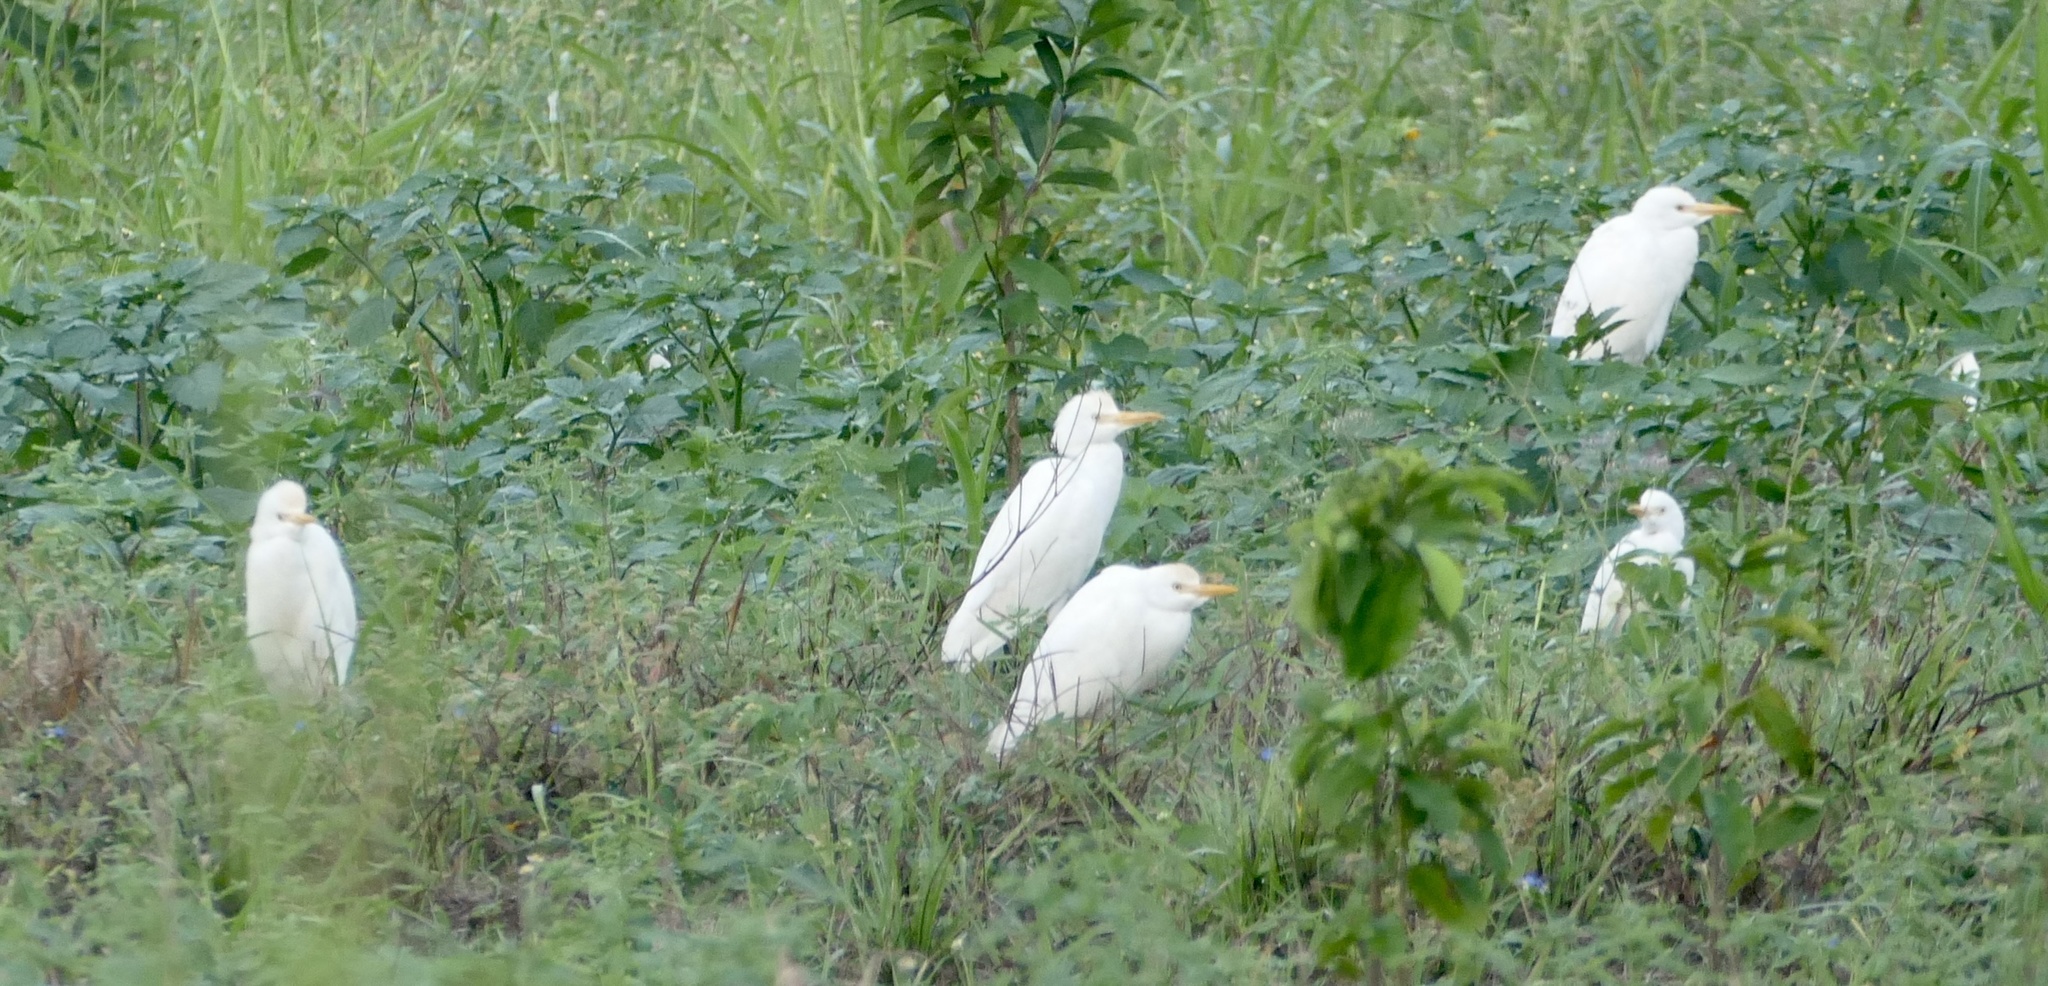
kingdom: Animalia
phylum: Chordata
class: Aves
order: Pelecaniformes
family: Ardeidae
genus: Bubulcus
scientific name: Bubulcus ibis
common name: Cattle egret
